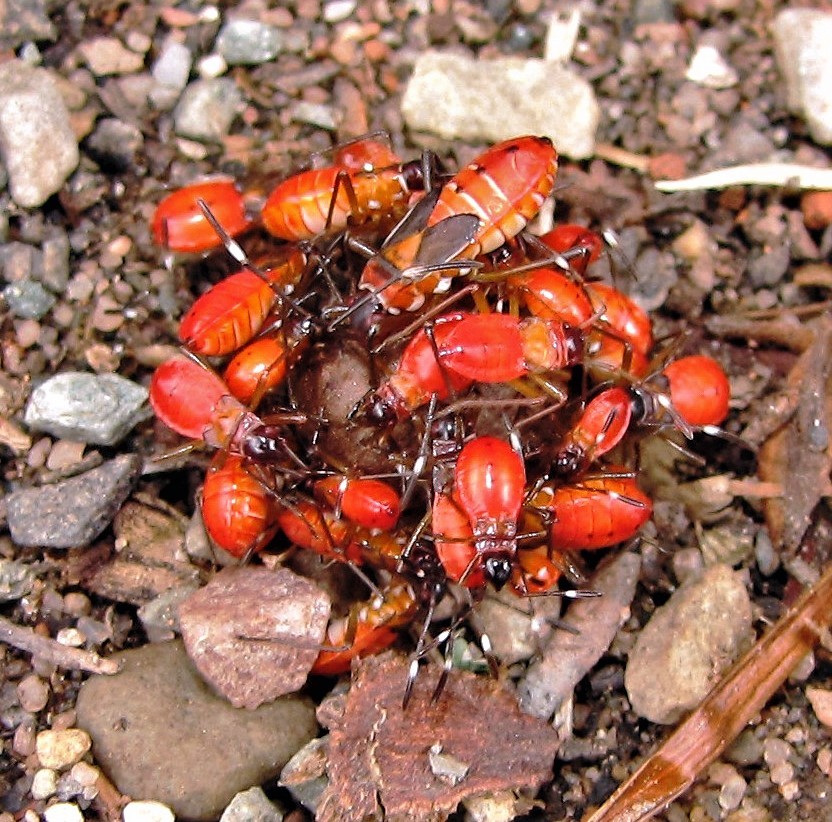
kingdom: Animalia
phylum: Arthropoda
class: Insecta
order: Hemiptera
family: Pyrrhocoridae
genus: Dysdercus
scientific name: Dysdercus
